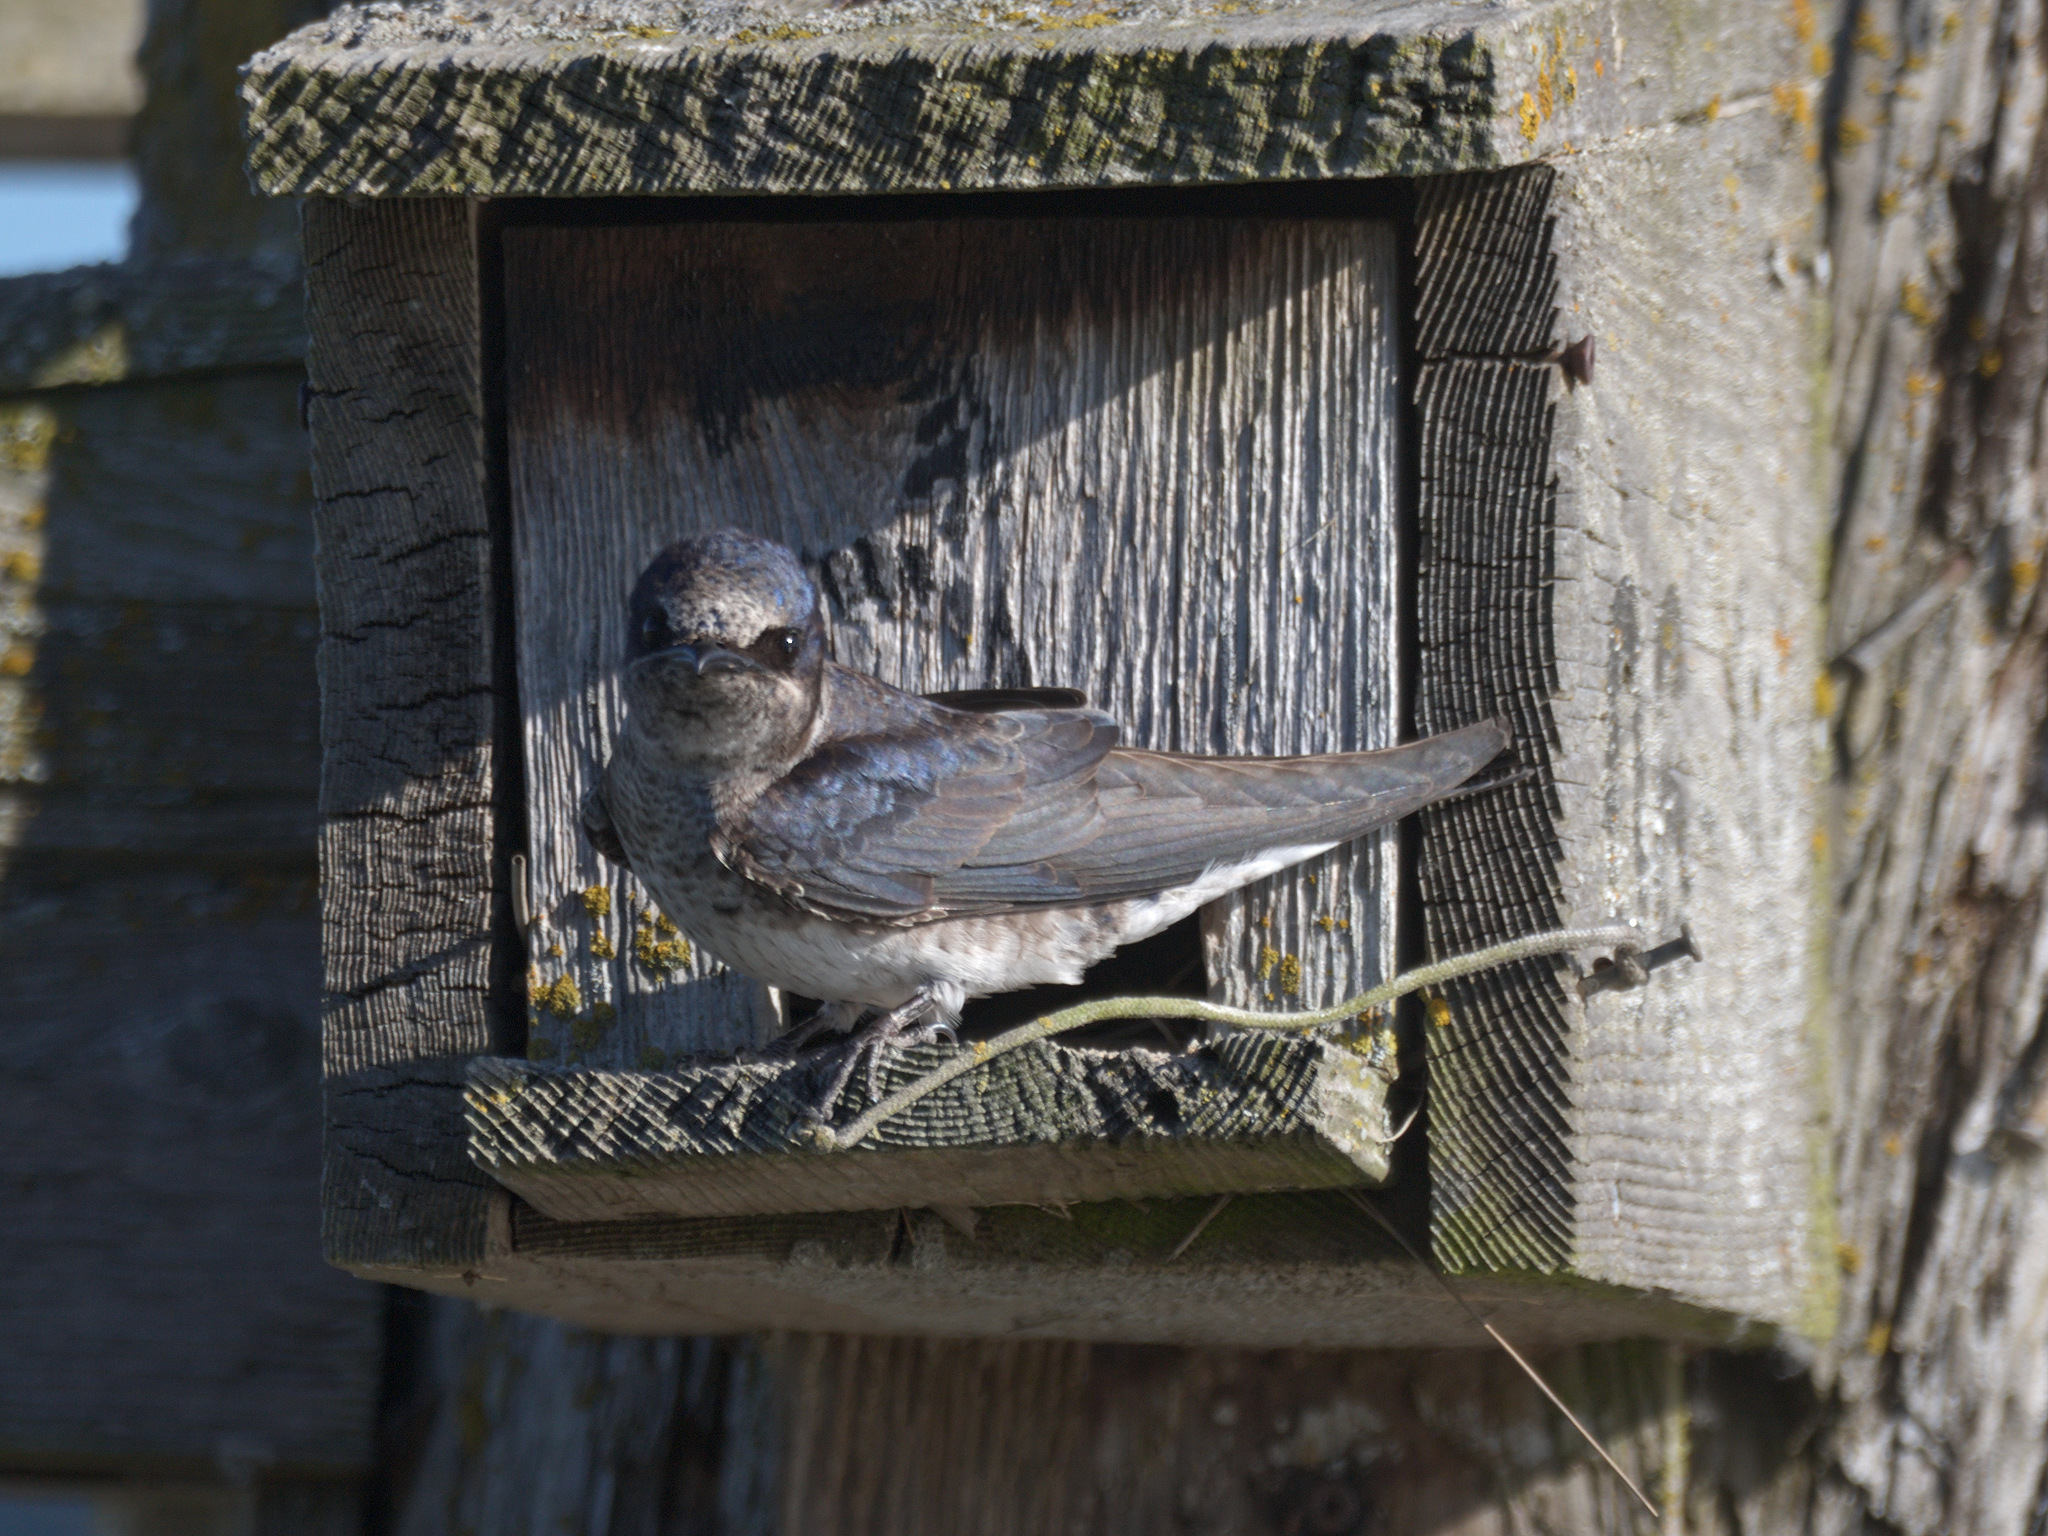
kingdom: Animalia
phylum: Chordata
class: Aves
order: Passeriformes
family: Hirundinidae
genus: Progne
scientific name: Progne subis
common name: Purple martin
